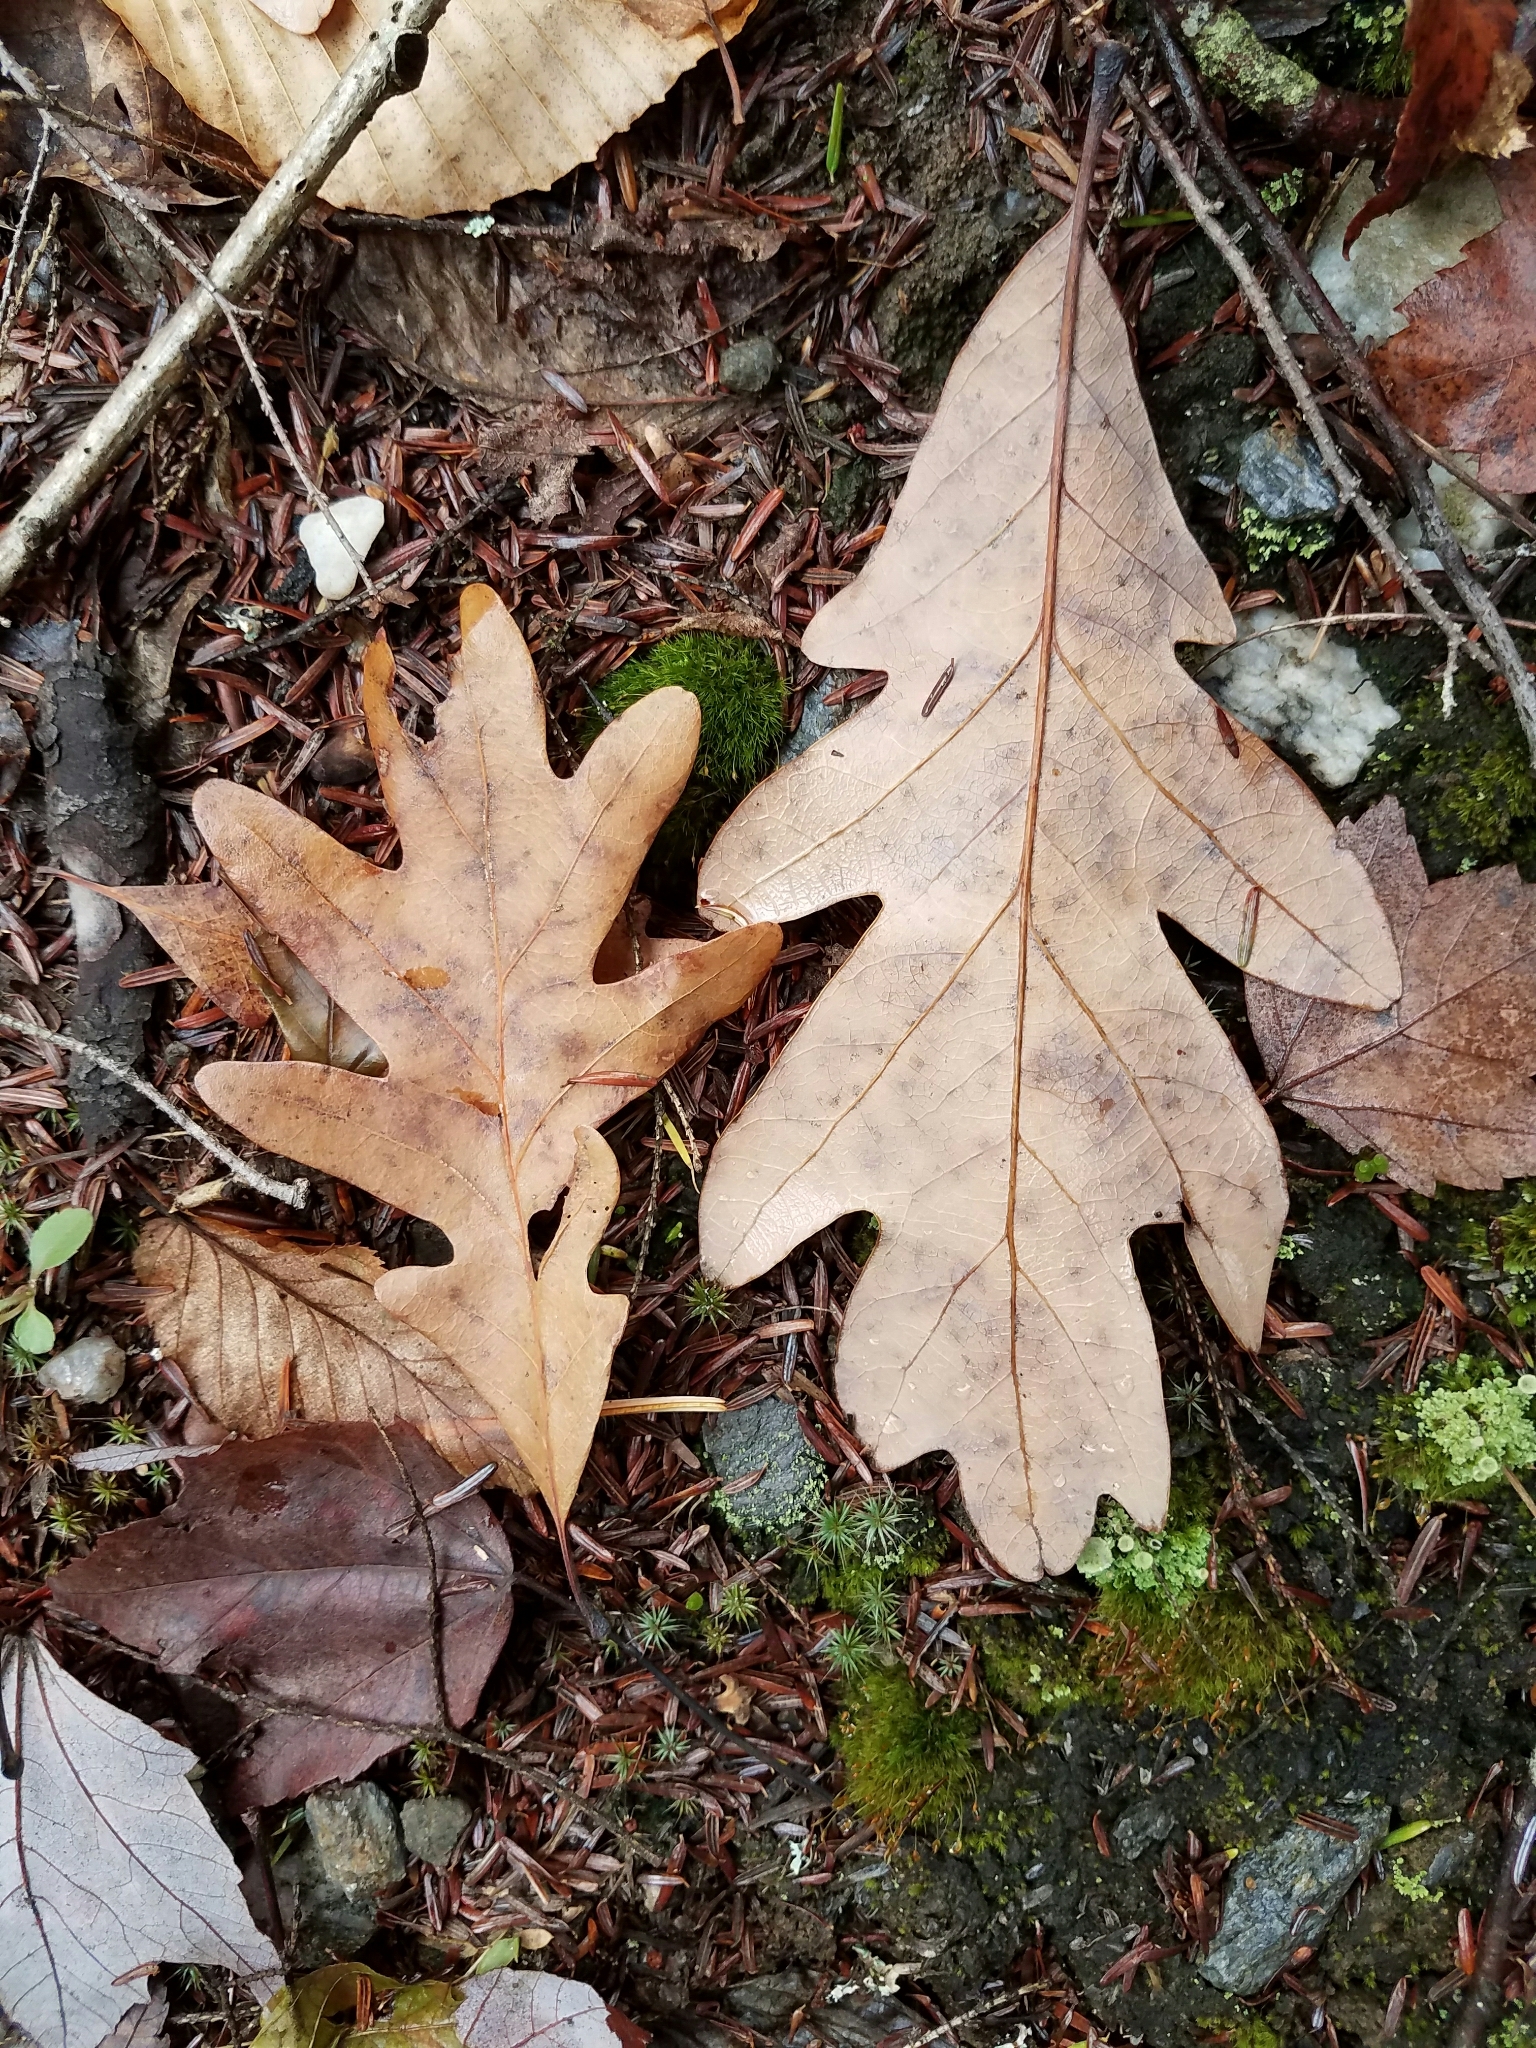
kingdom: Plantae
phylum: Tracheophyta
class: Magnoliopsida
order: Fagales
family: Fagaceae
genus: Quercus
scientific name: Quercus alba
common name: White oak
